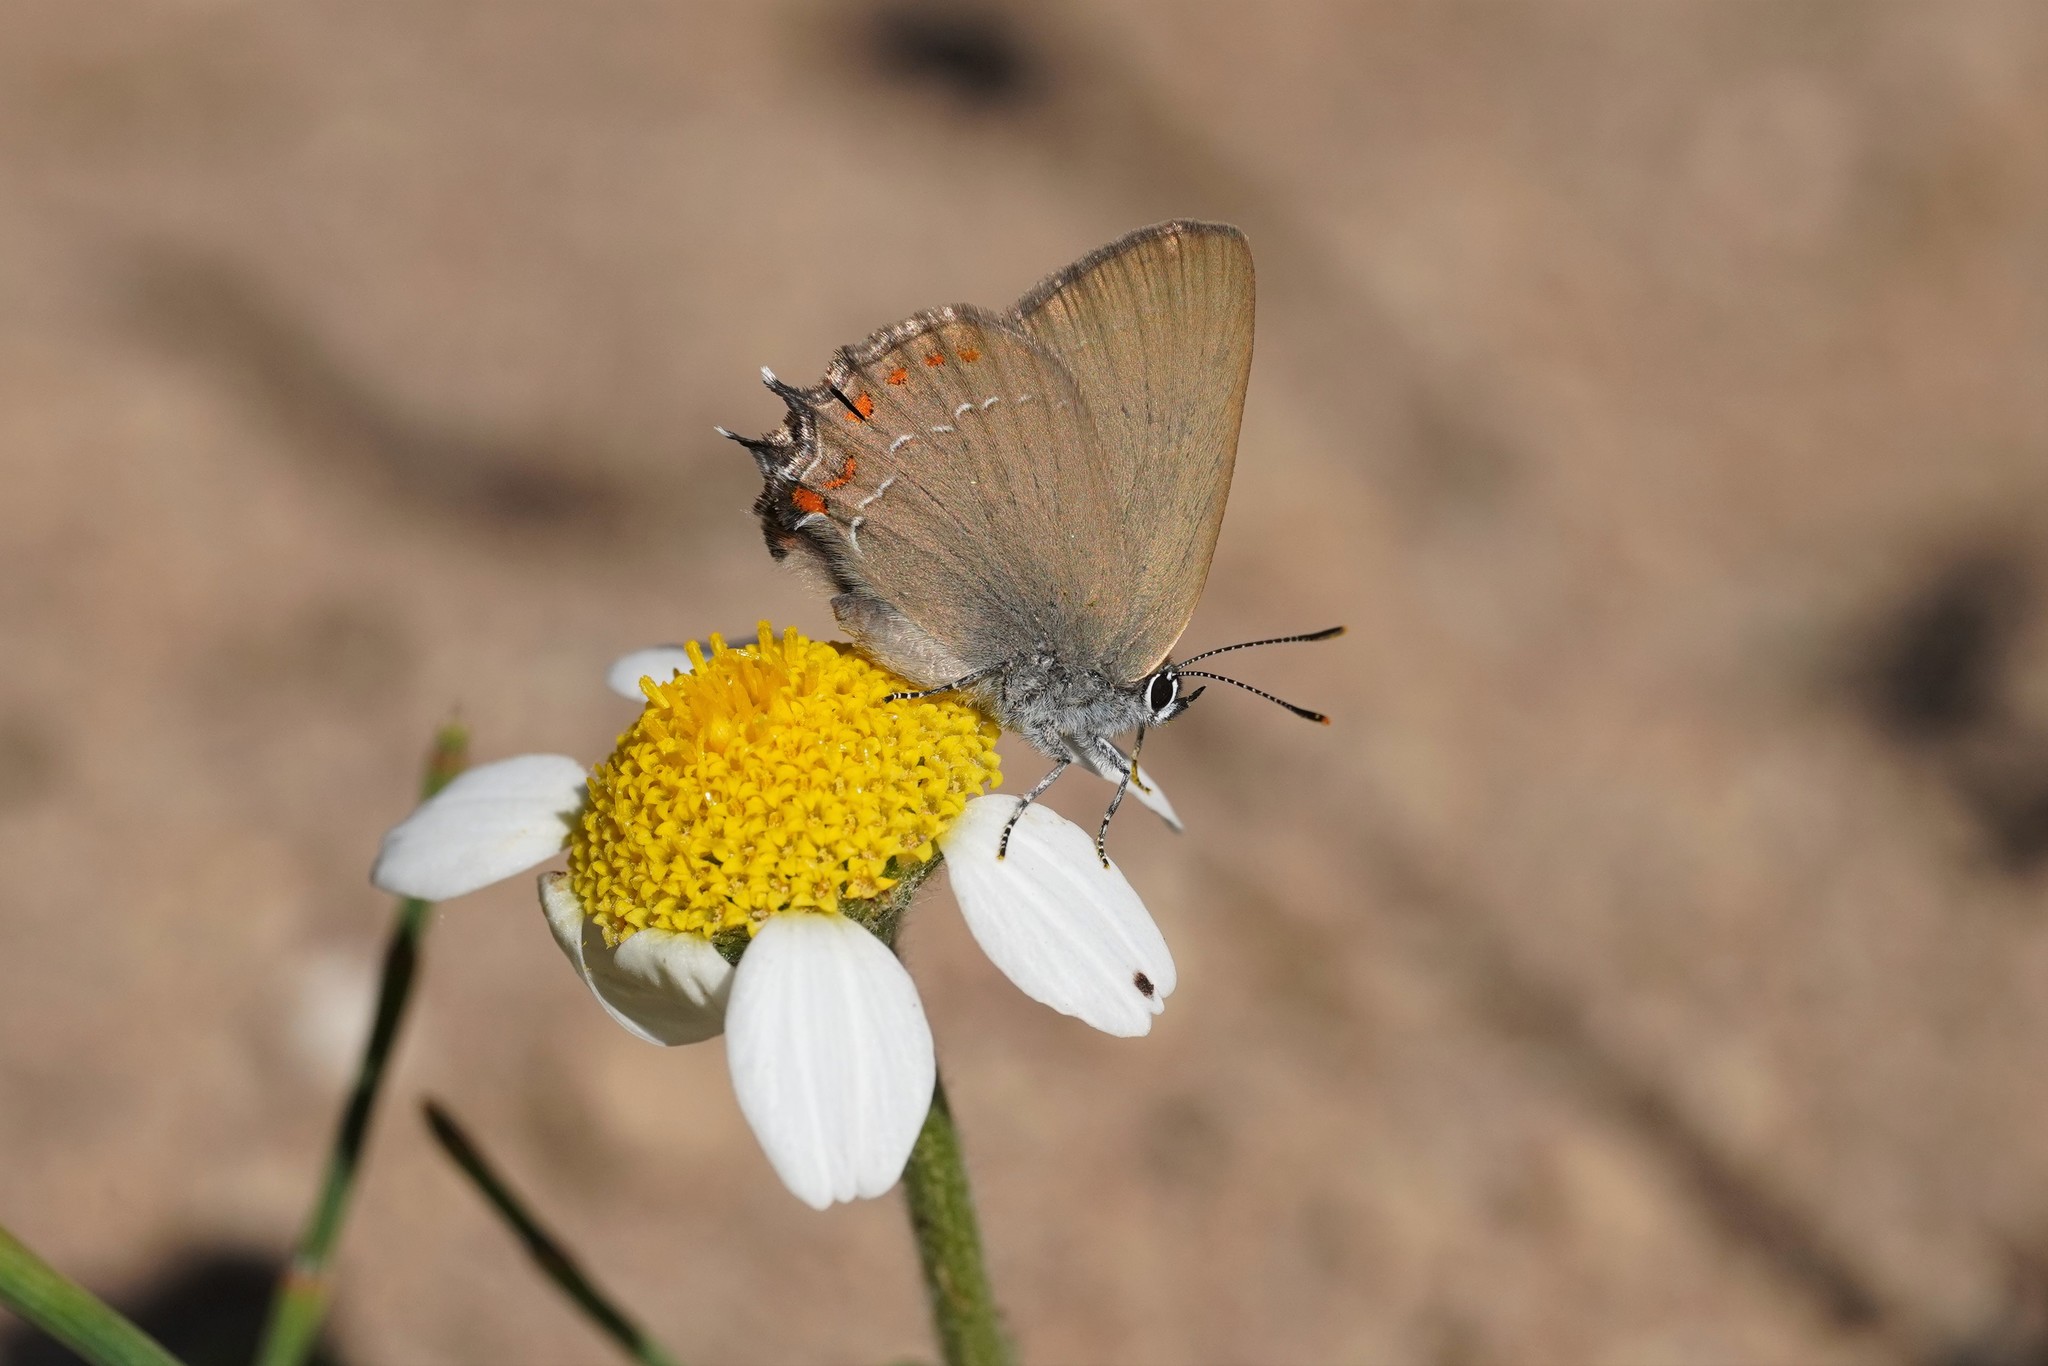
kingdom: Animalia
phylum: Arthropoda
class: Insecta
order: Lepidoptera
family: Lycaenidae
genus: Fixsenia
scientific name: Fixsenia esculi
